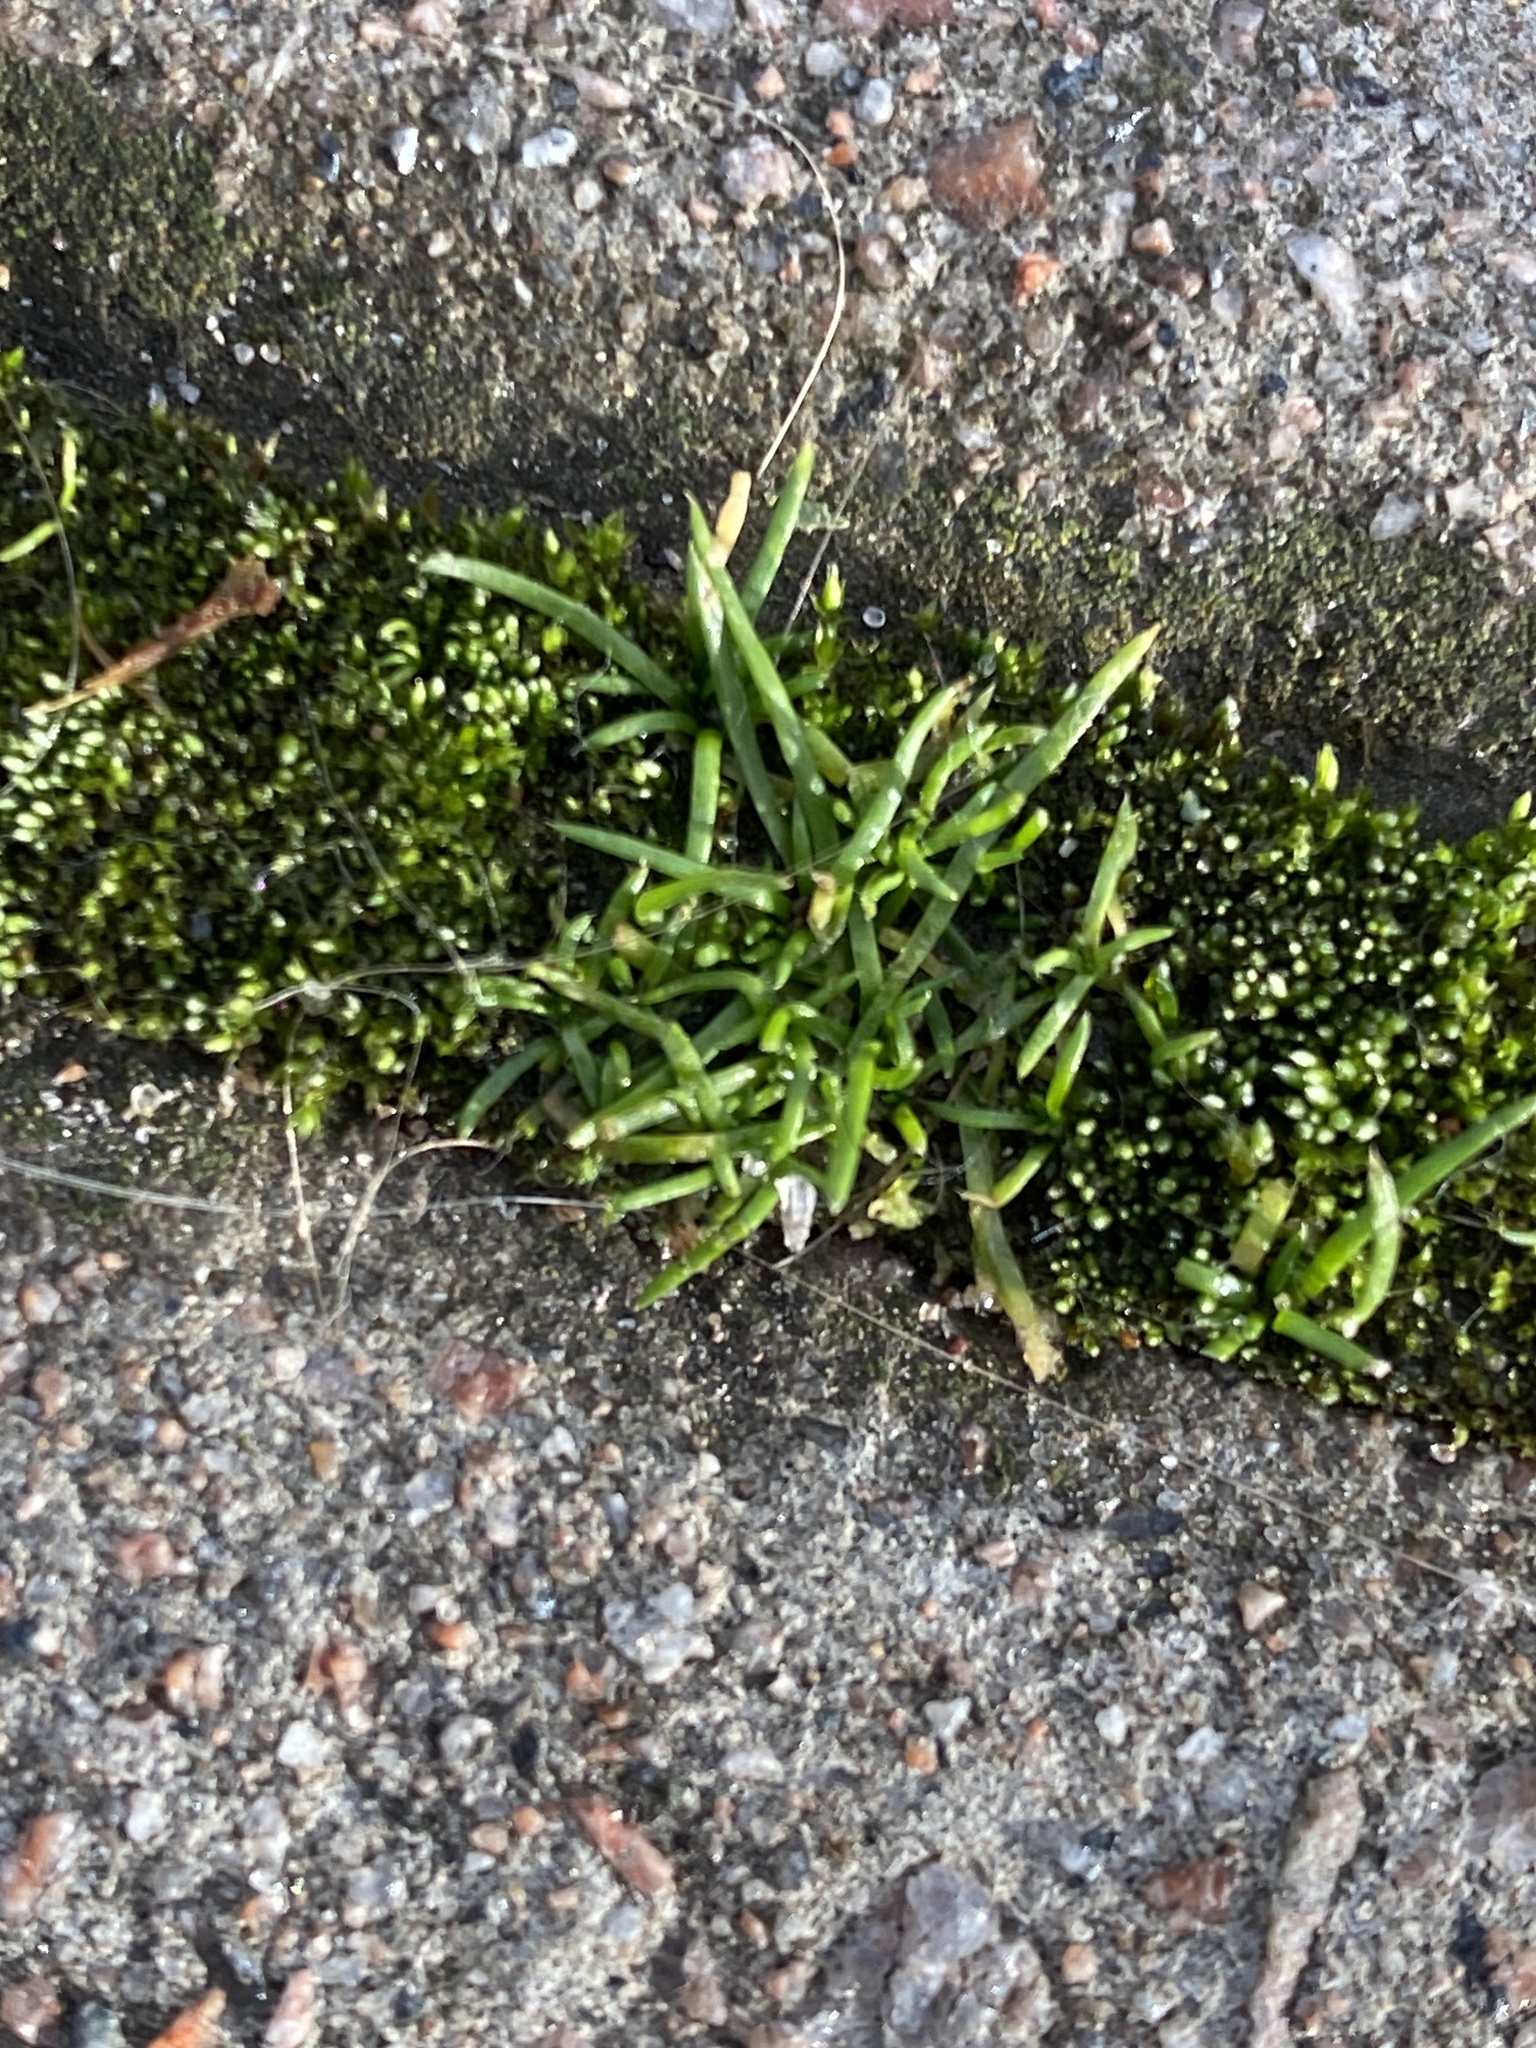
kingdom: Plantae
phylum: Tracheophyta
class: Magnoliopsida
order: Caryophyllales
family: Caryophyllaceae
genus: Sagina
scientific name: Sagina procumbens
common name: Procumbent pearlwort
